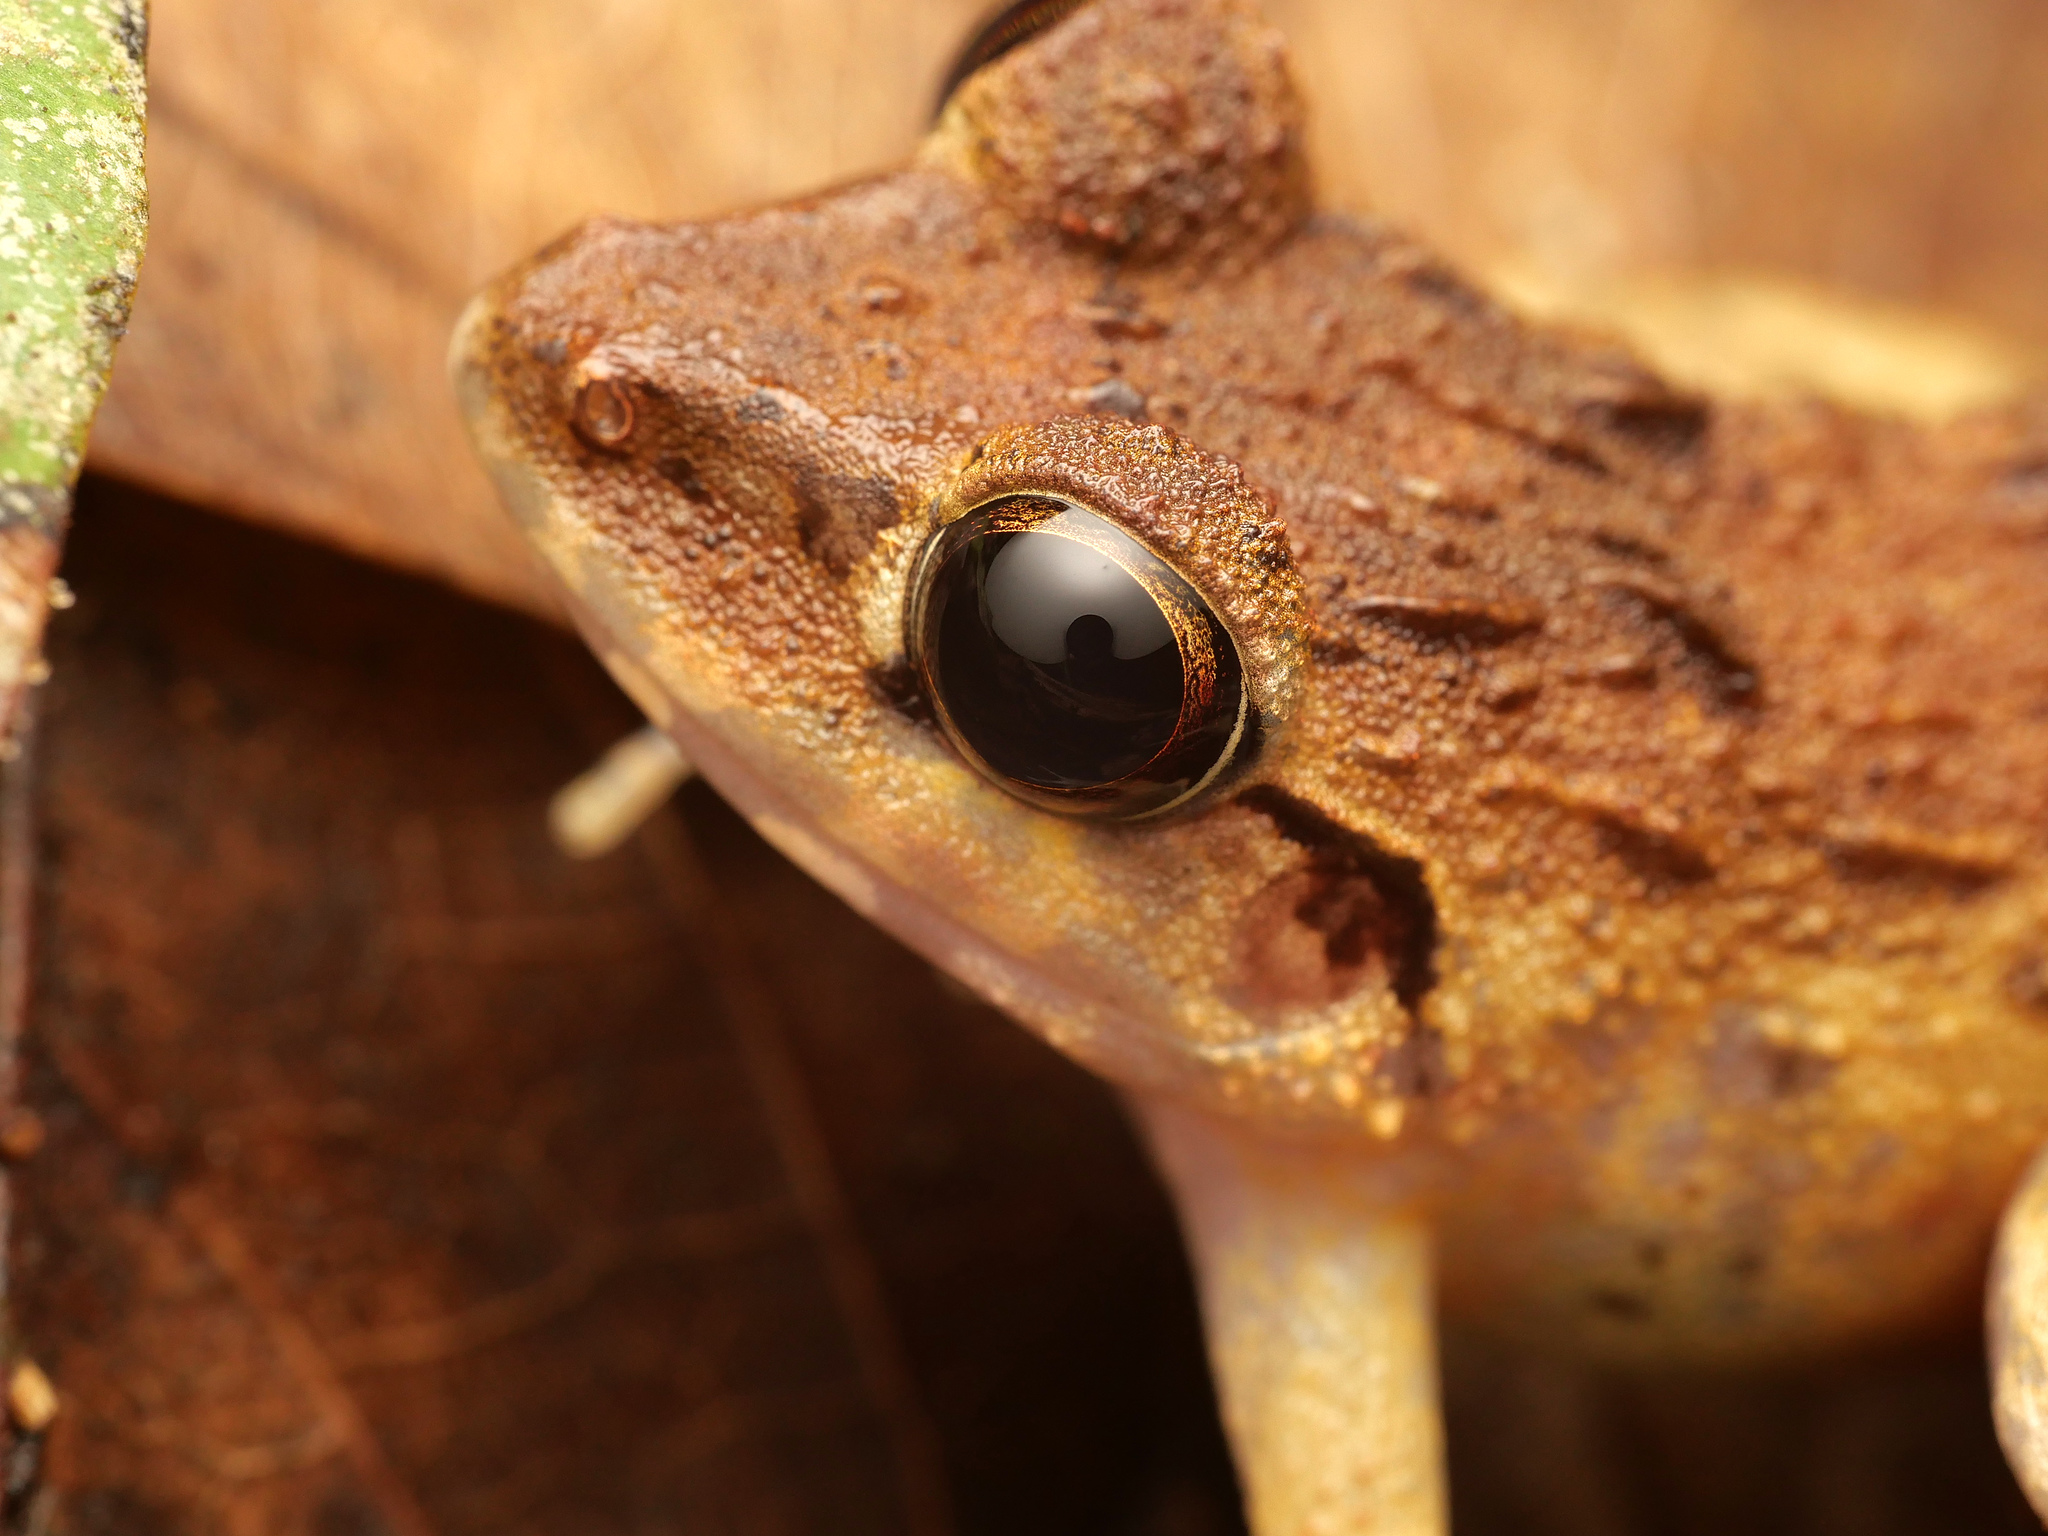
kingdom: Animalia
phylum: Chordata
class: Amphibia
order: Anura
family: Ceratobatrachidae
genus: Cornufer
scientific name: Cornufer papuensis
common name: Papua wrinkled ground frog
